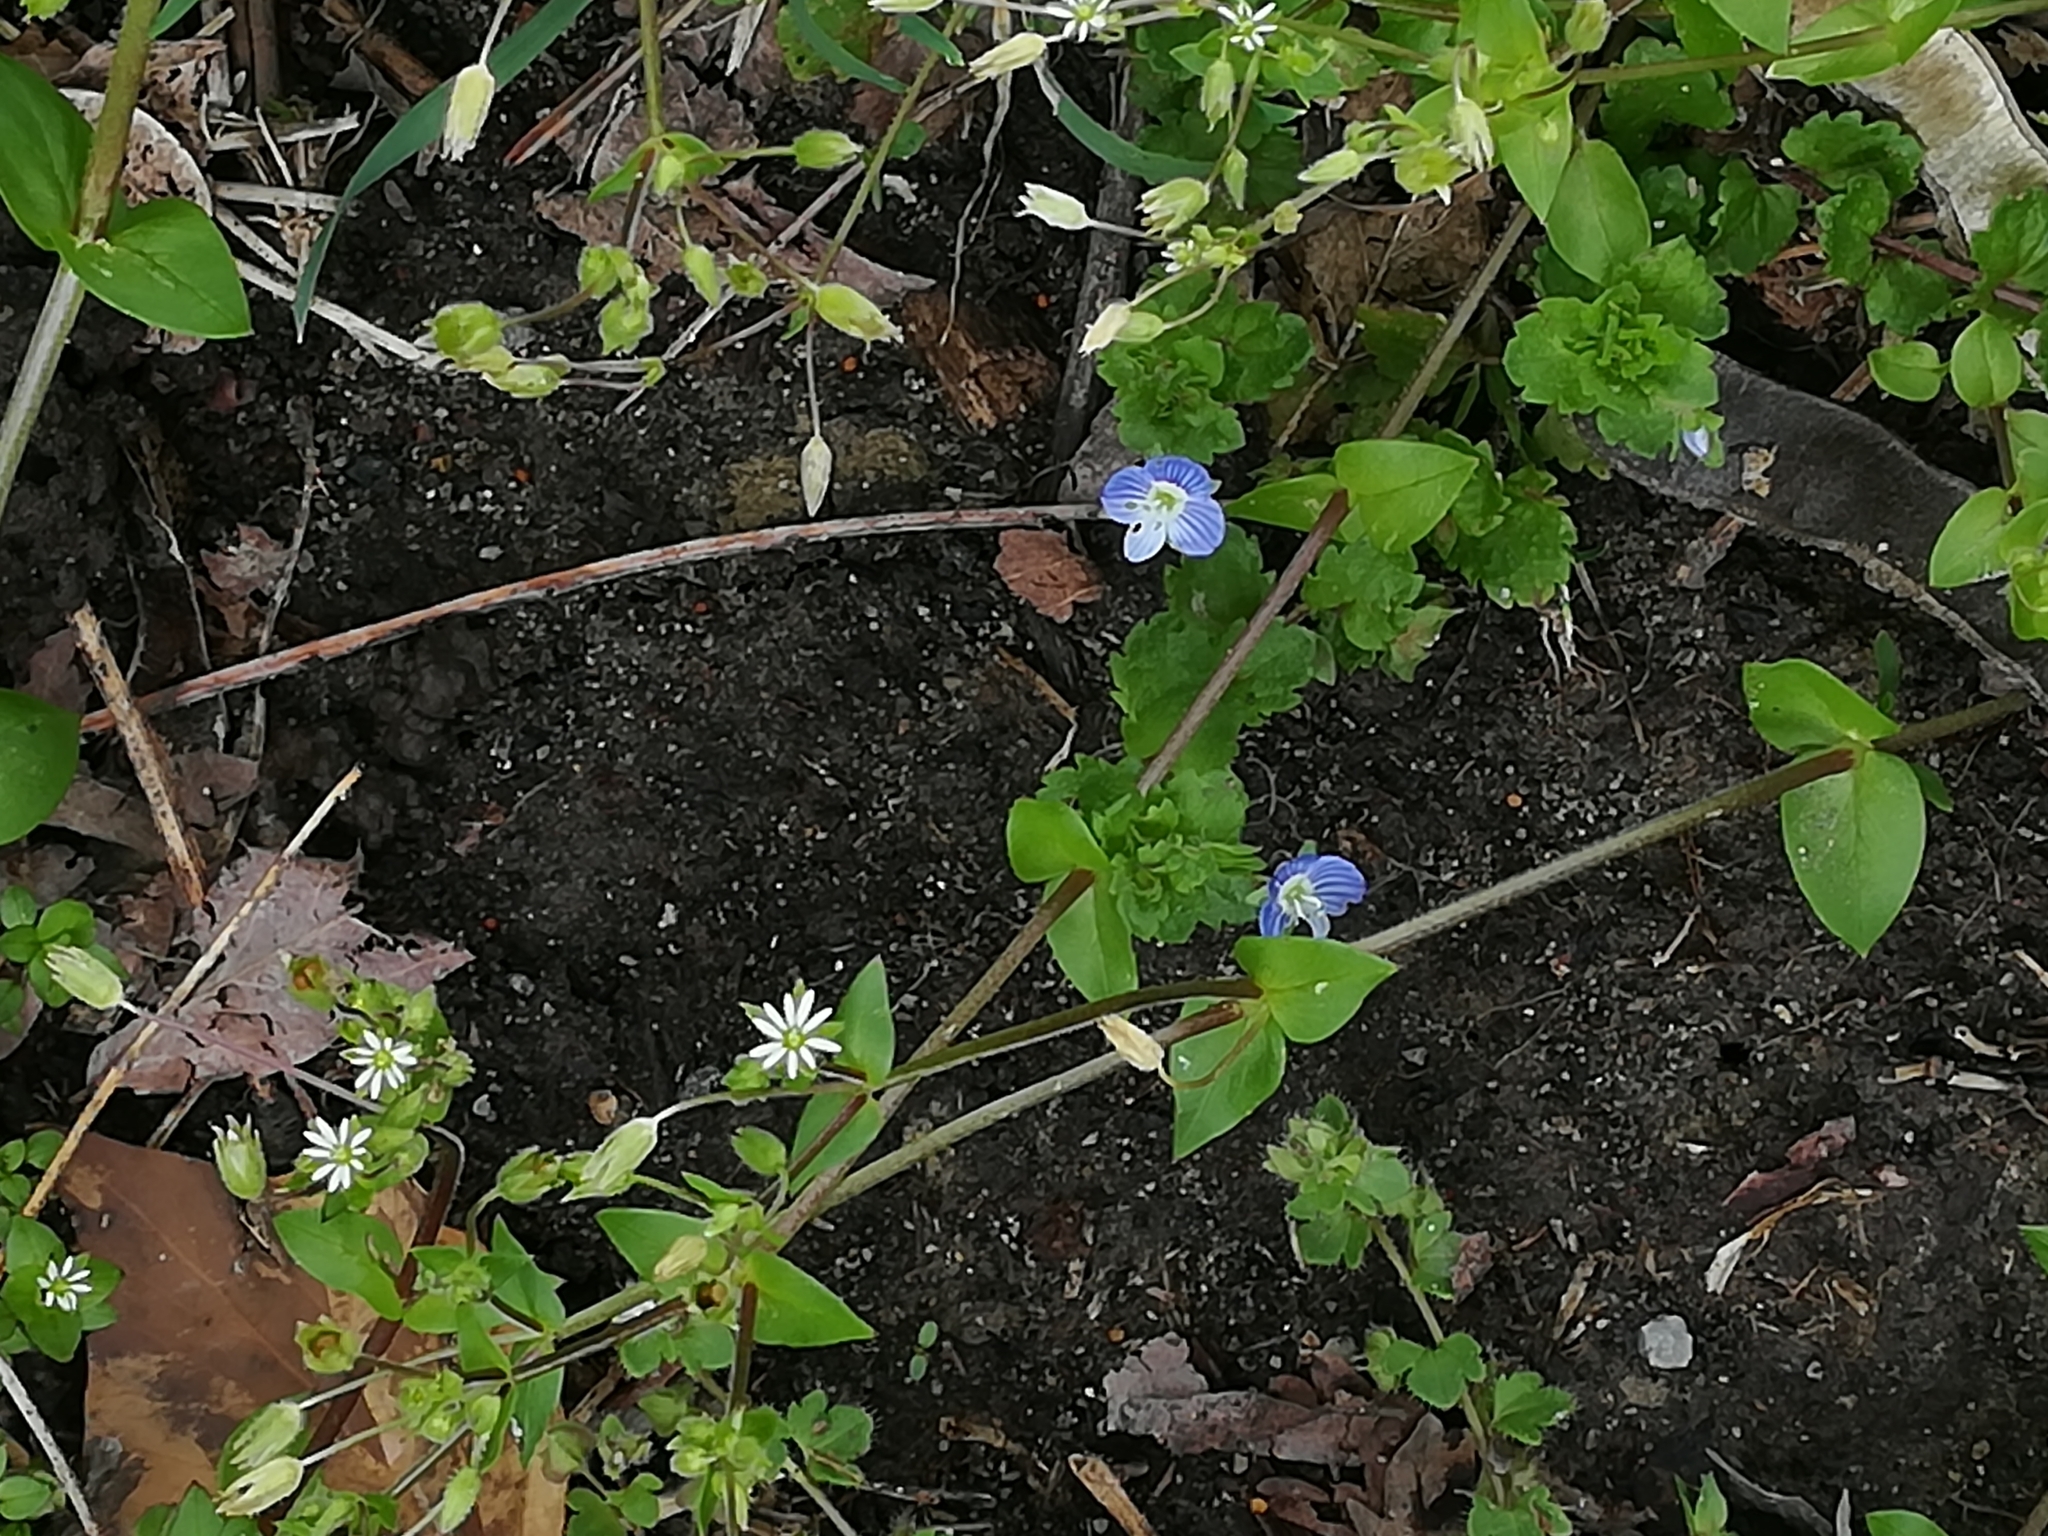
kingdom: Plantae
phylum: Tracheophyta
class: Magnoliopsida
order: Lamiales
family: Plantaginaceae
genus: Veronica
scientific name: Veronica persica
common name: Common field-speedwell
